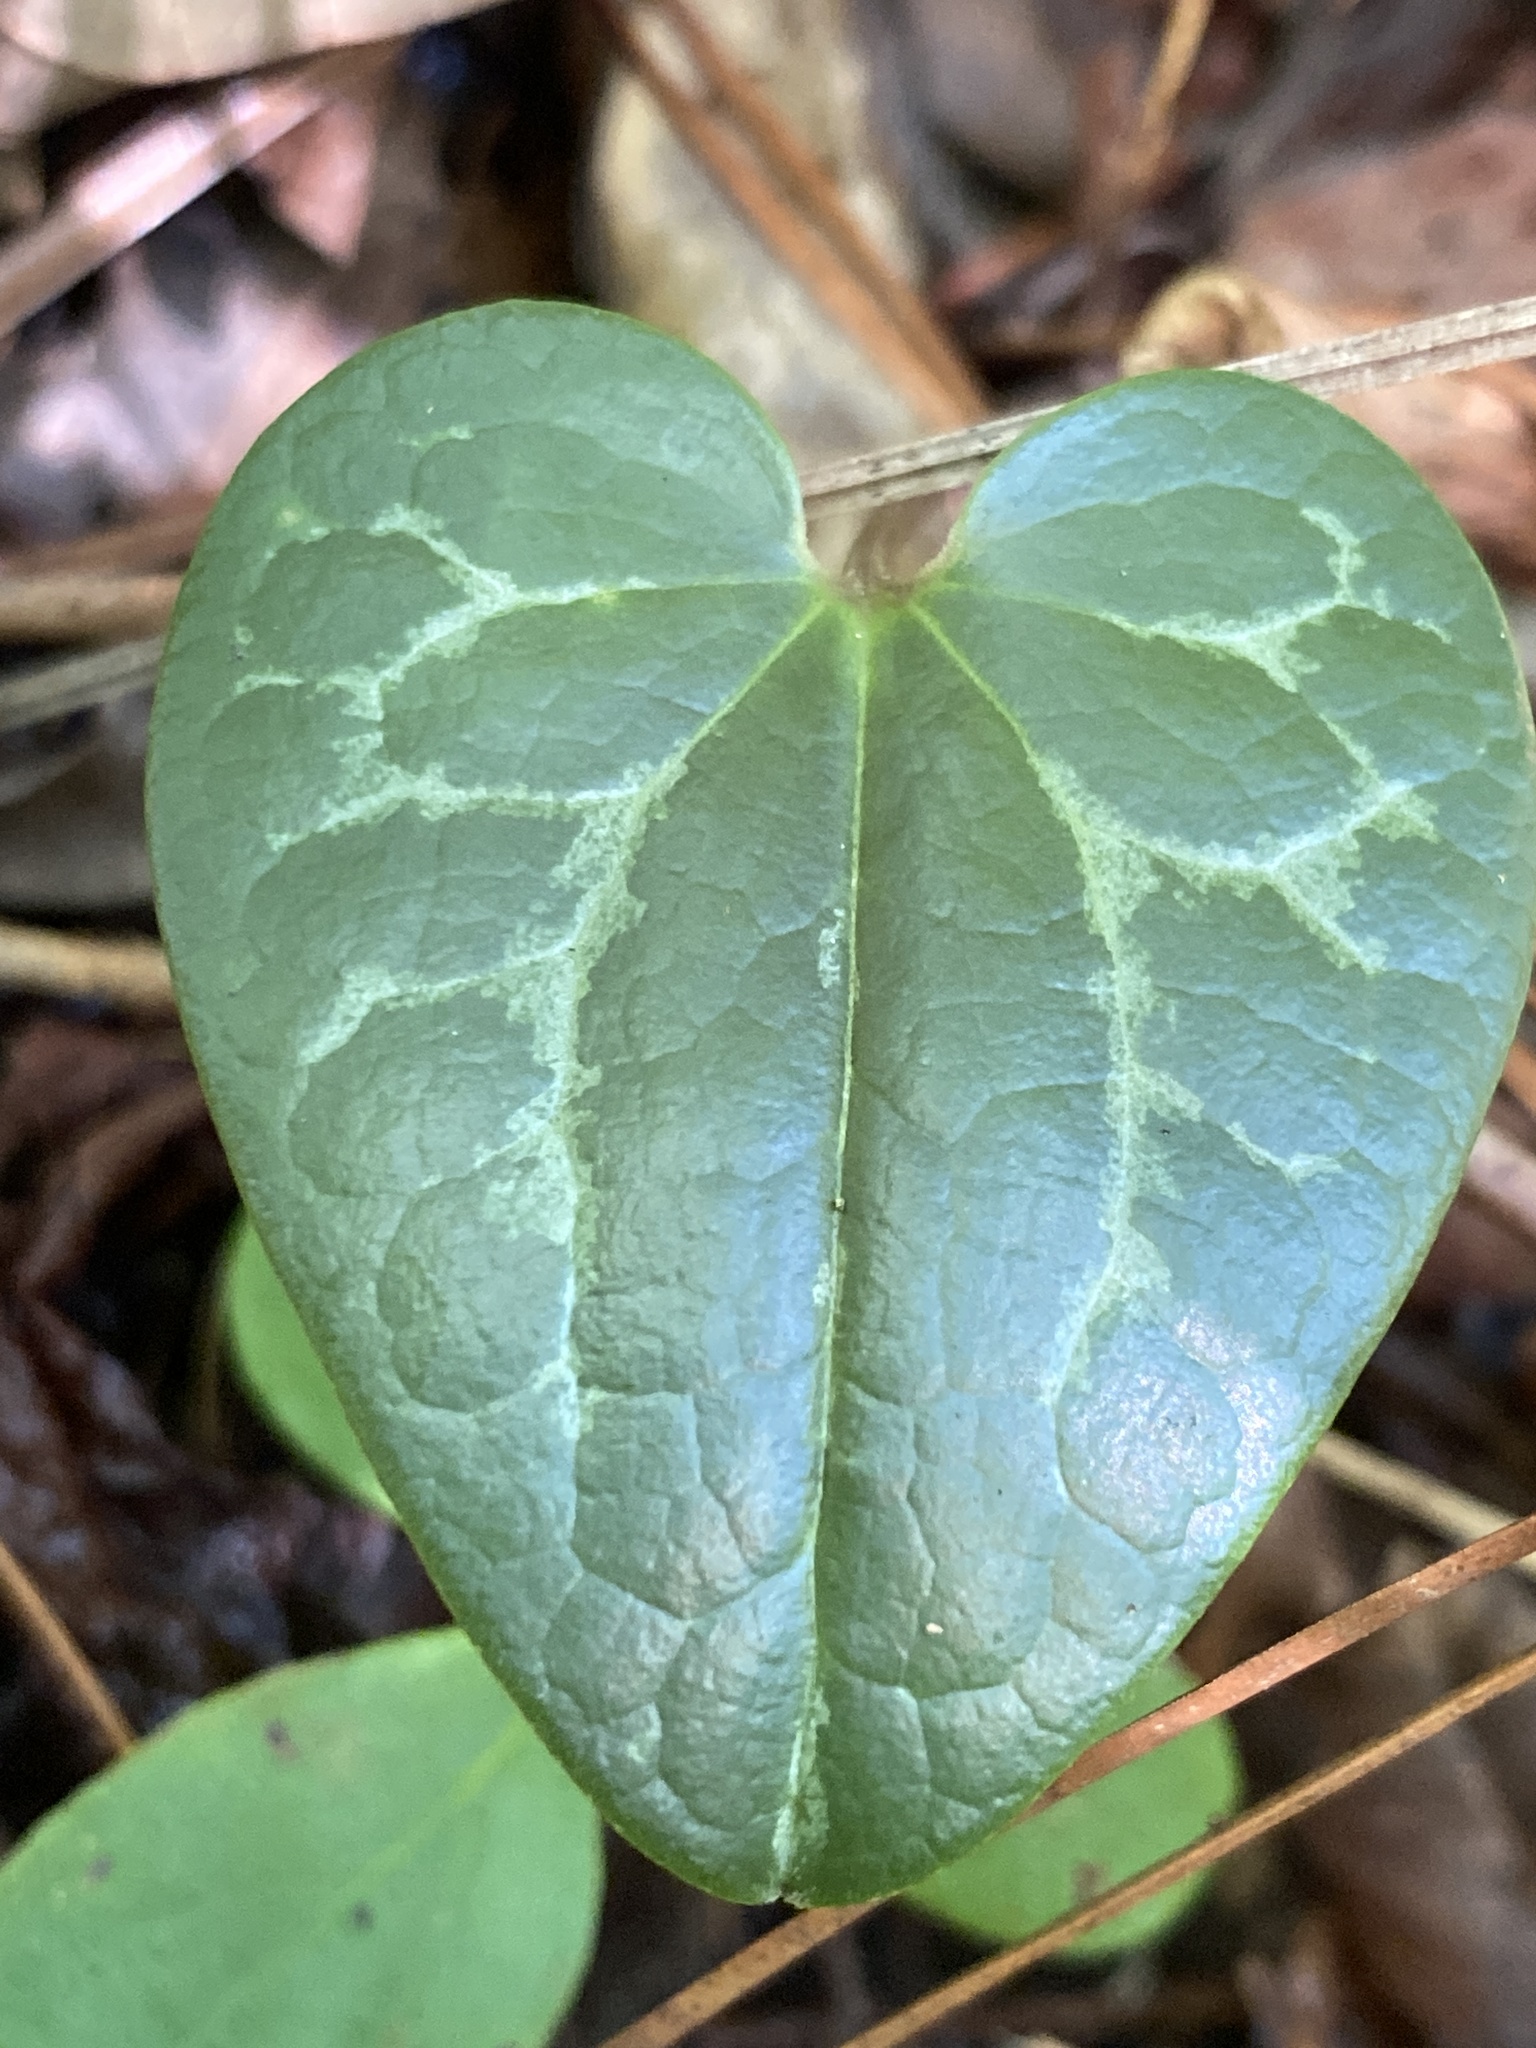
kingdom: Plantae
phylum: Tracheophyta
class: Magnoliopsida
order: Piperales
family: Aristolochiaceae
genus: Hexastylis
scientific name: Hexastylis sorriei
